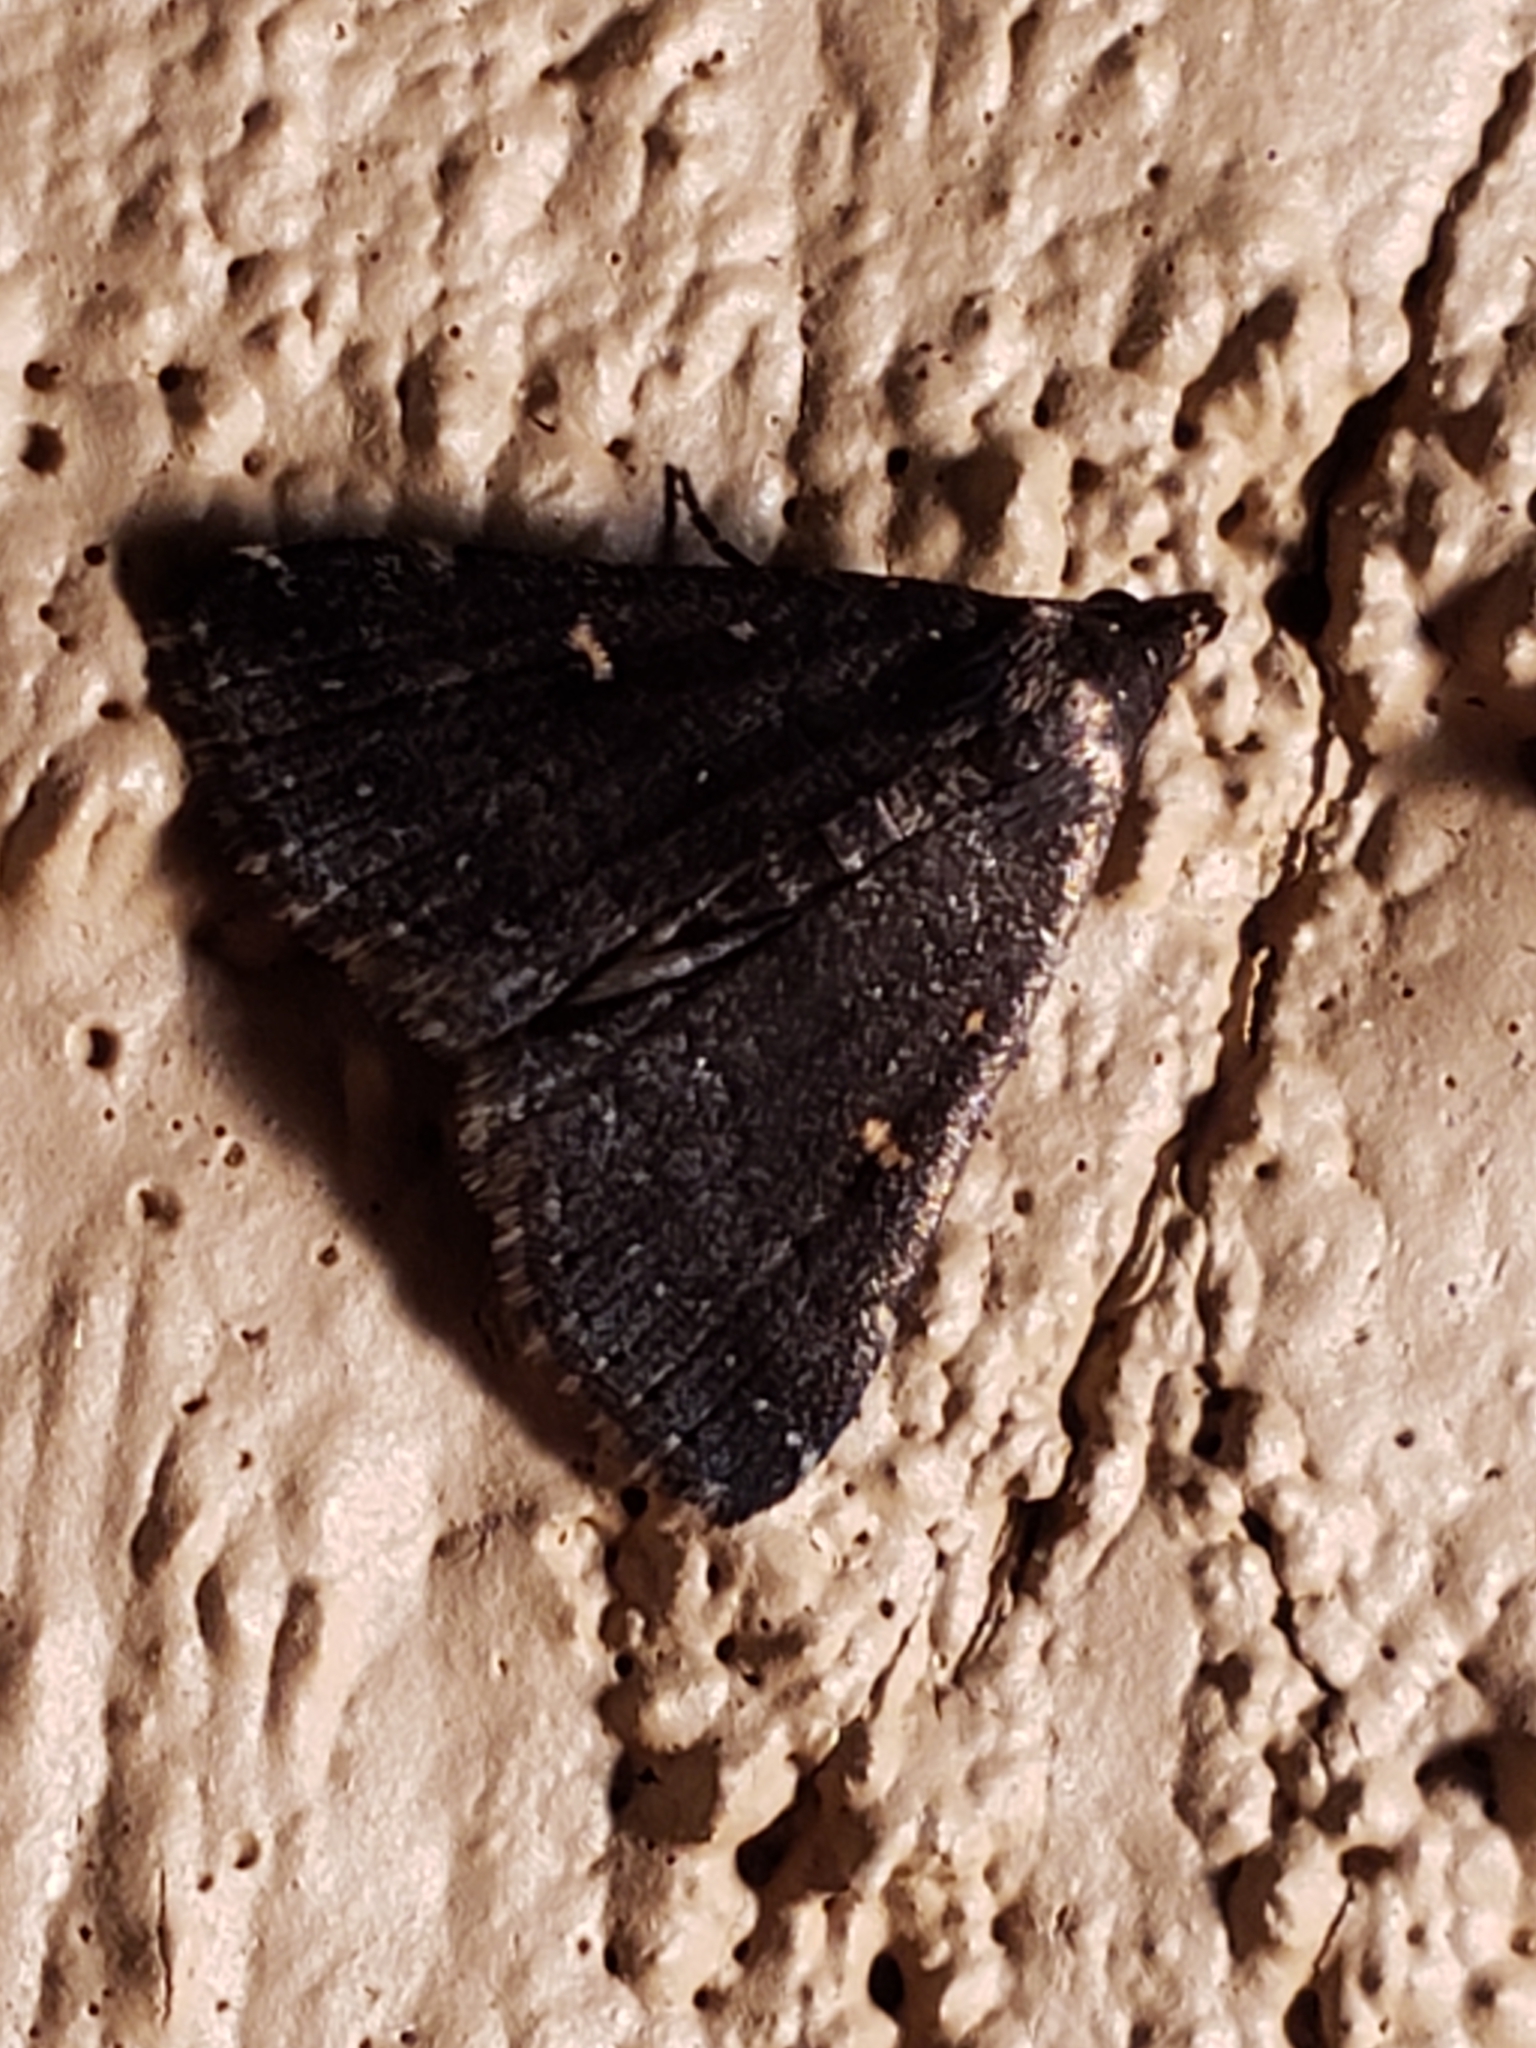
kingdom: Animalia
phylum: Arthropoda
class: Insecta
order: Lepidoptera
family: Erebidae
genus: Tetanolita
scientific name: Tetanolita mynesalis
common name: Smoky tetanolita moth
